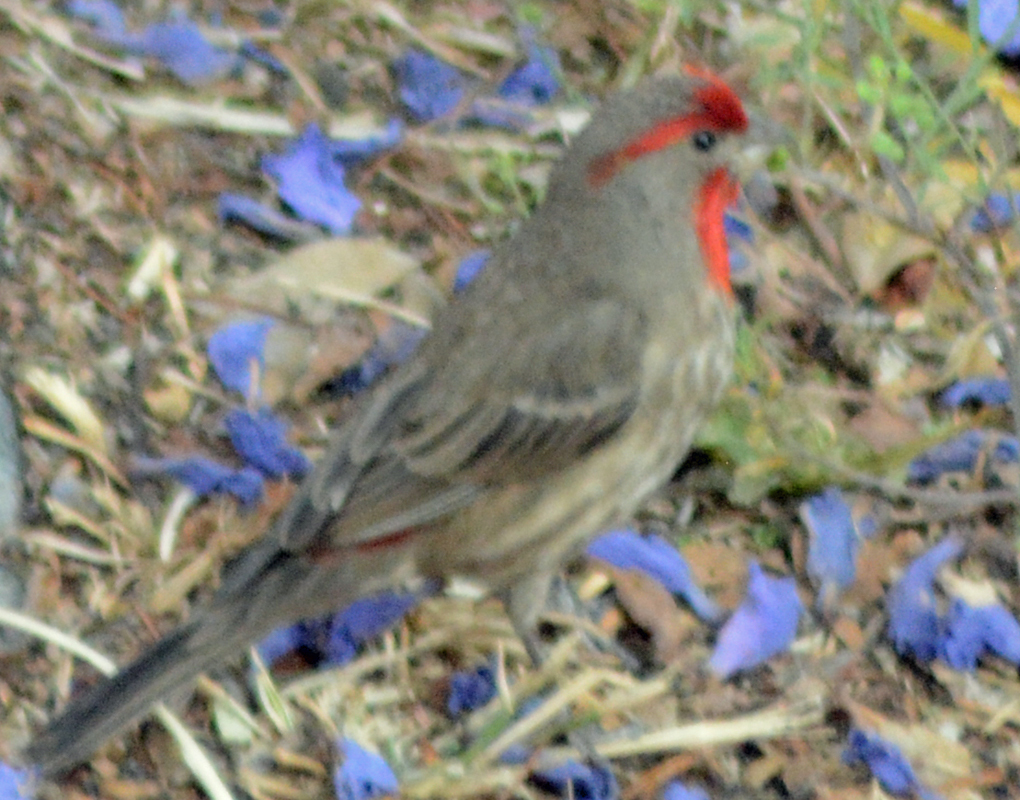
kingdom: Animalia
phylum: Chordata
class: Aves
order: Passeriformes
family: Fringillidae
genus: Haemorhous
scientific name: Haemorhous mexicanus
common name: House finch
